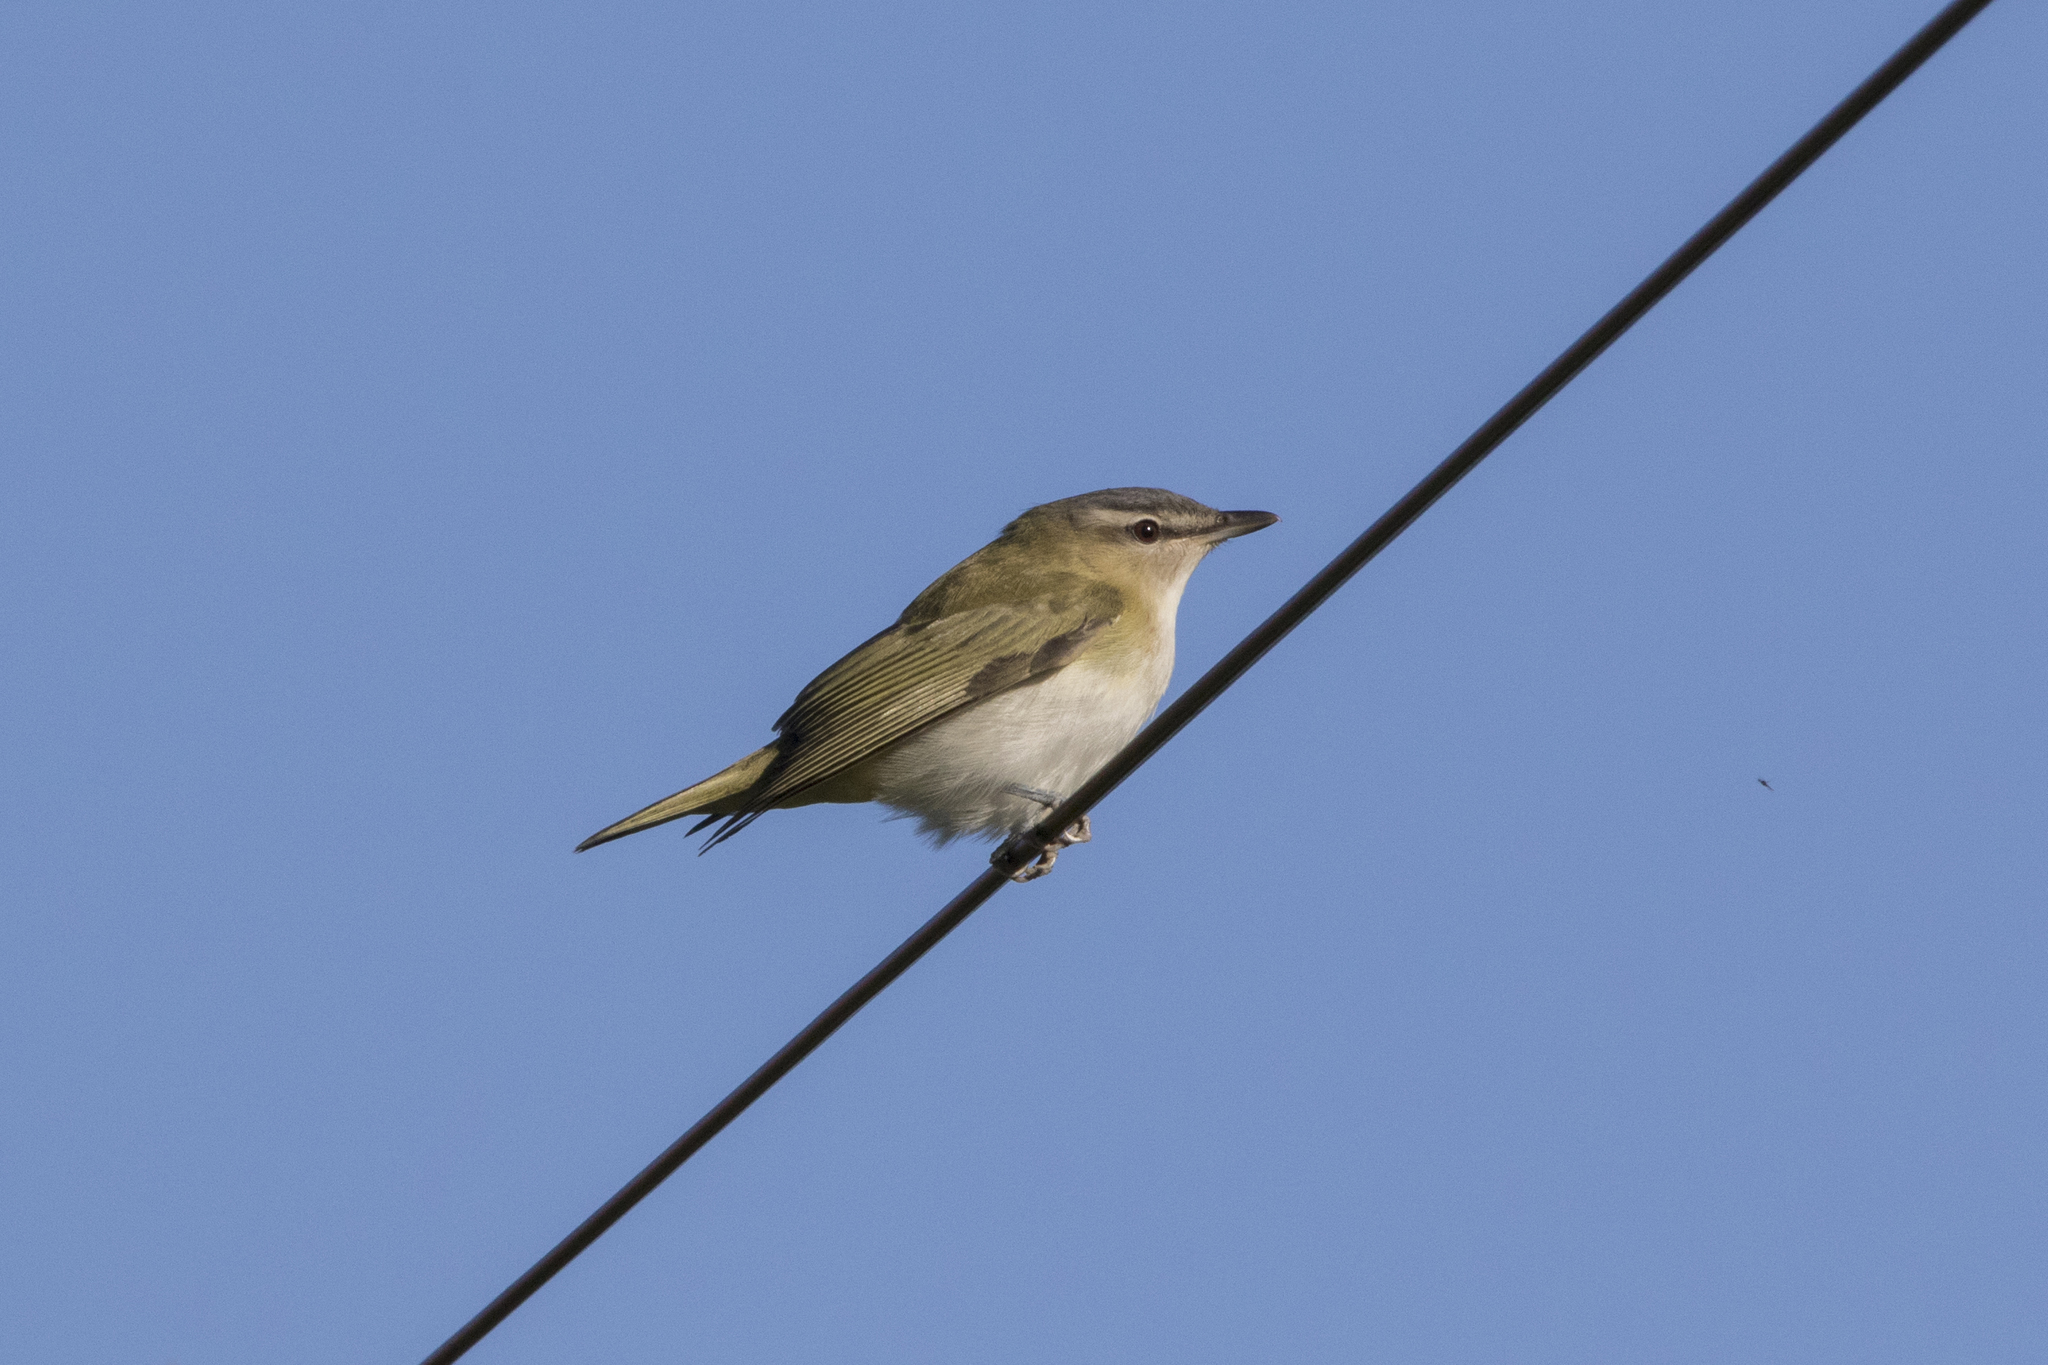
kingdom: Animalia
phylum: Chordata
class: Aves
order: Passeriformes
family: Vireonidae
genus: Vireo
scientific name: Vireo olivaceus
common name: Red-eyed vireo
